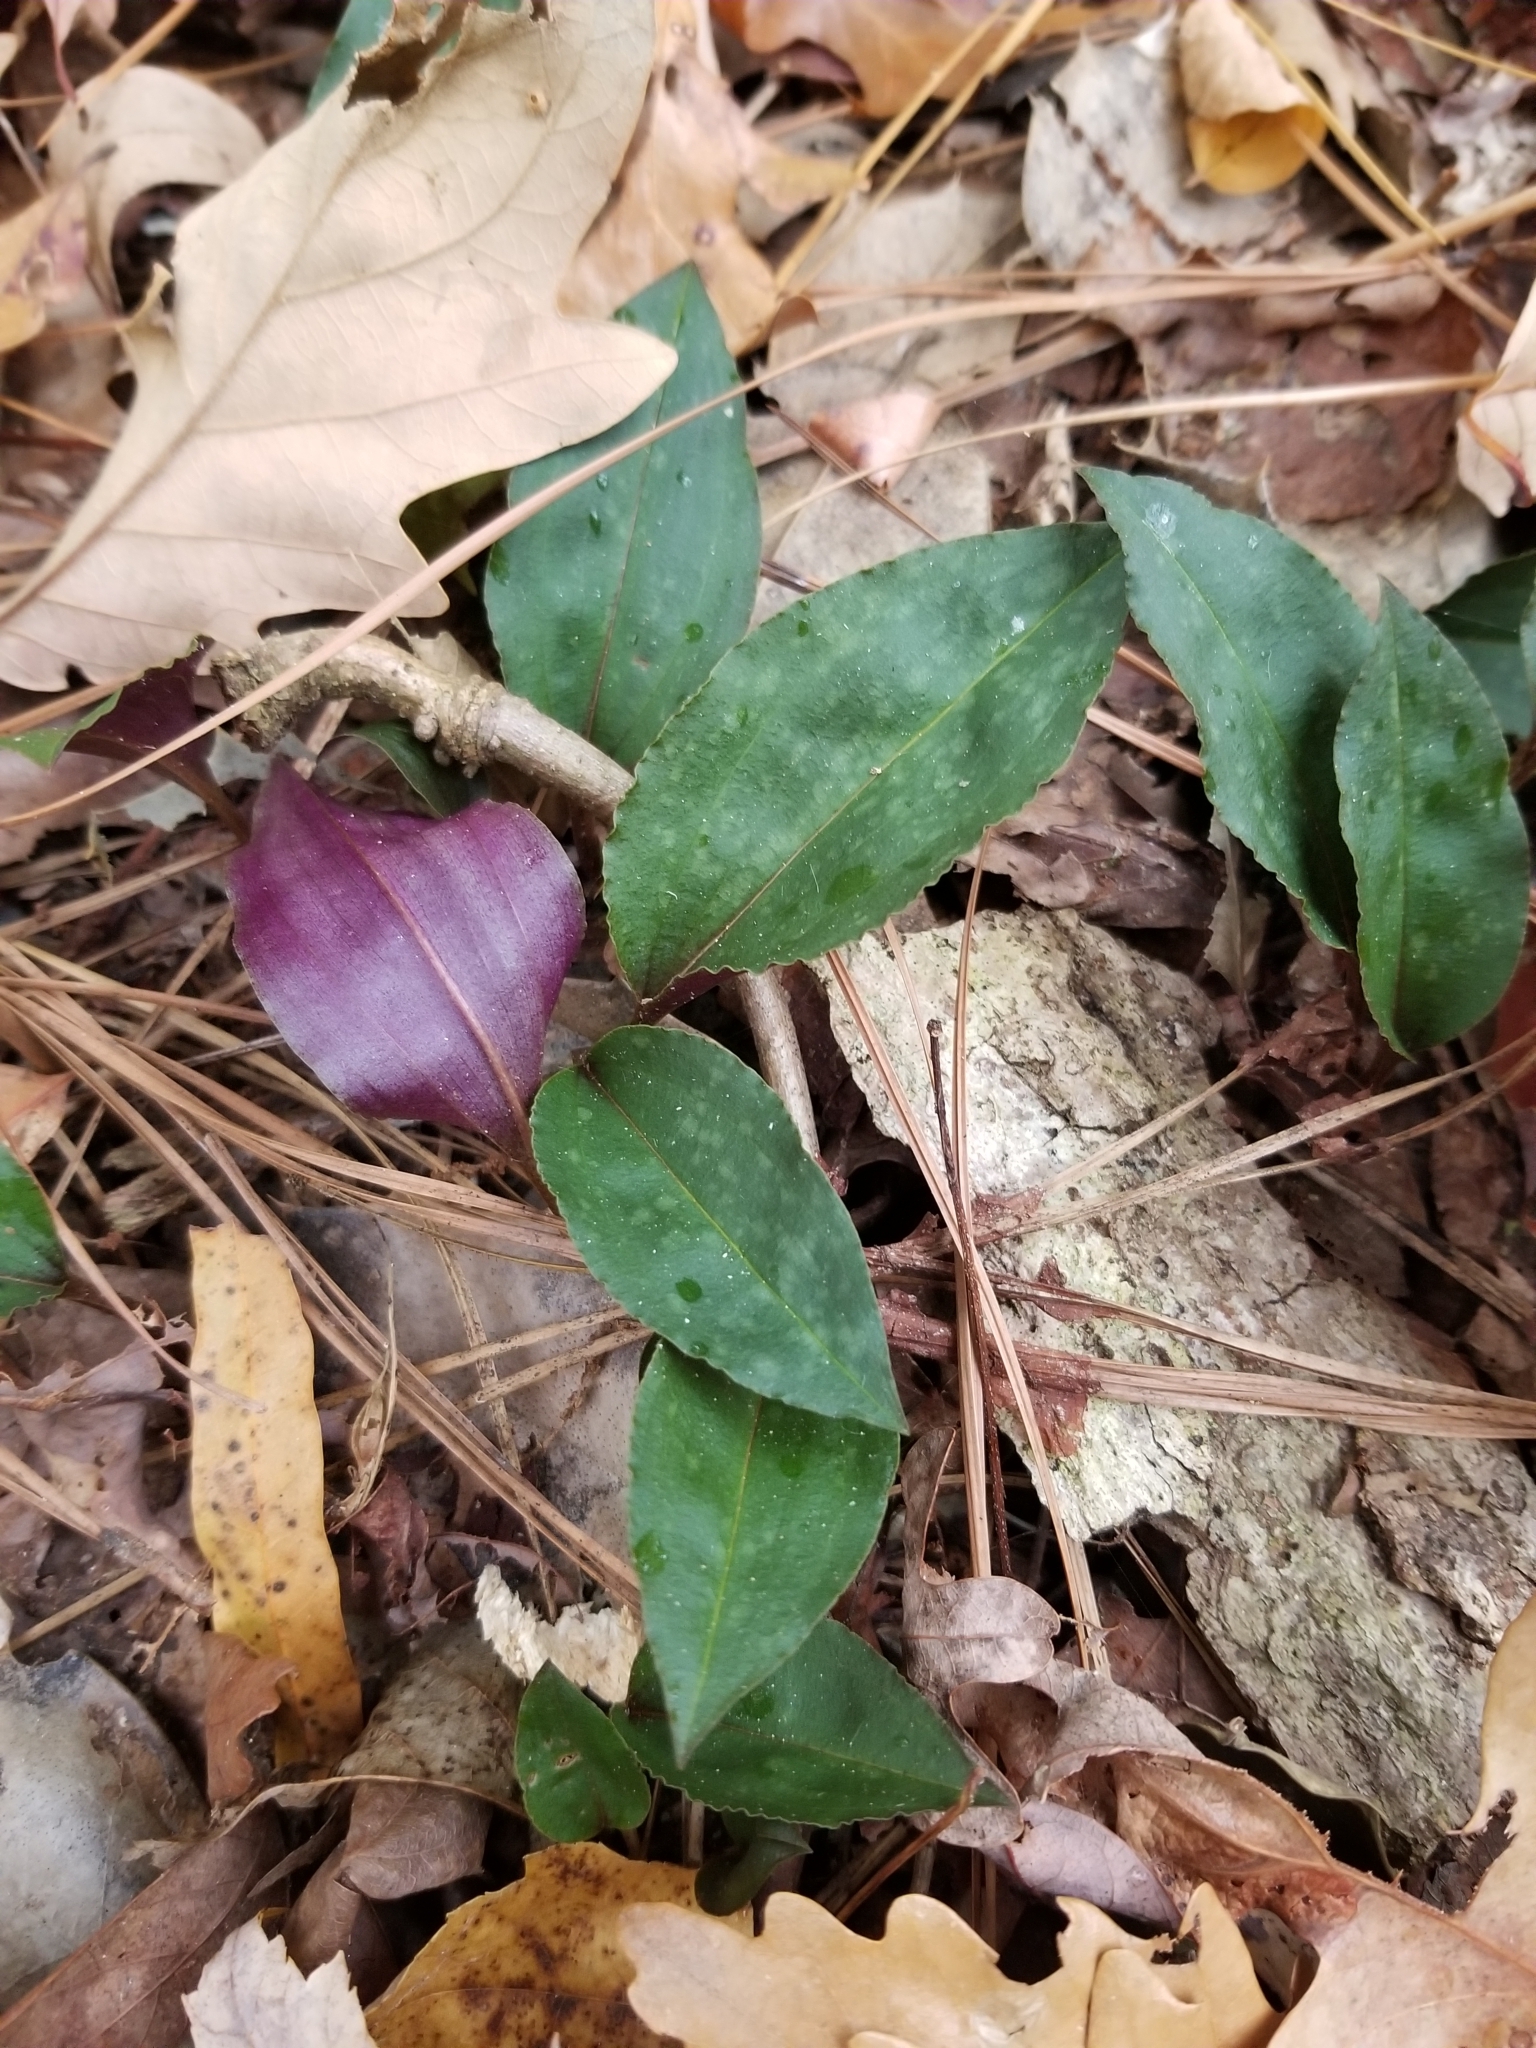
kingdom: Plantae
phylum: Tracheophyta
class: Liliopsida
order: Asparagales
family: Orchidaceae
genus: Tipularia
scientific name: Tipularia discolor
